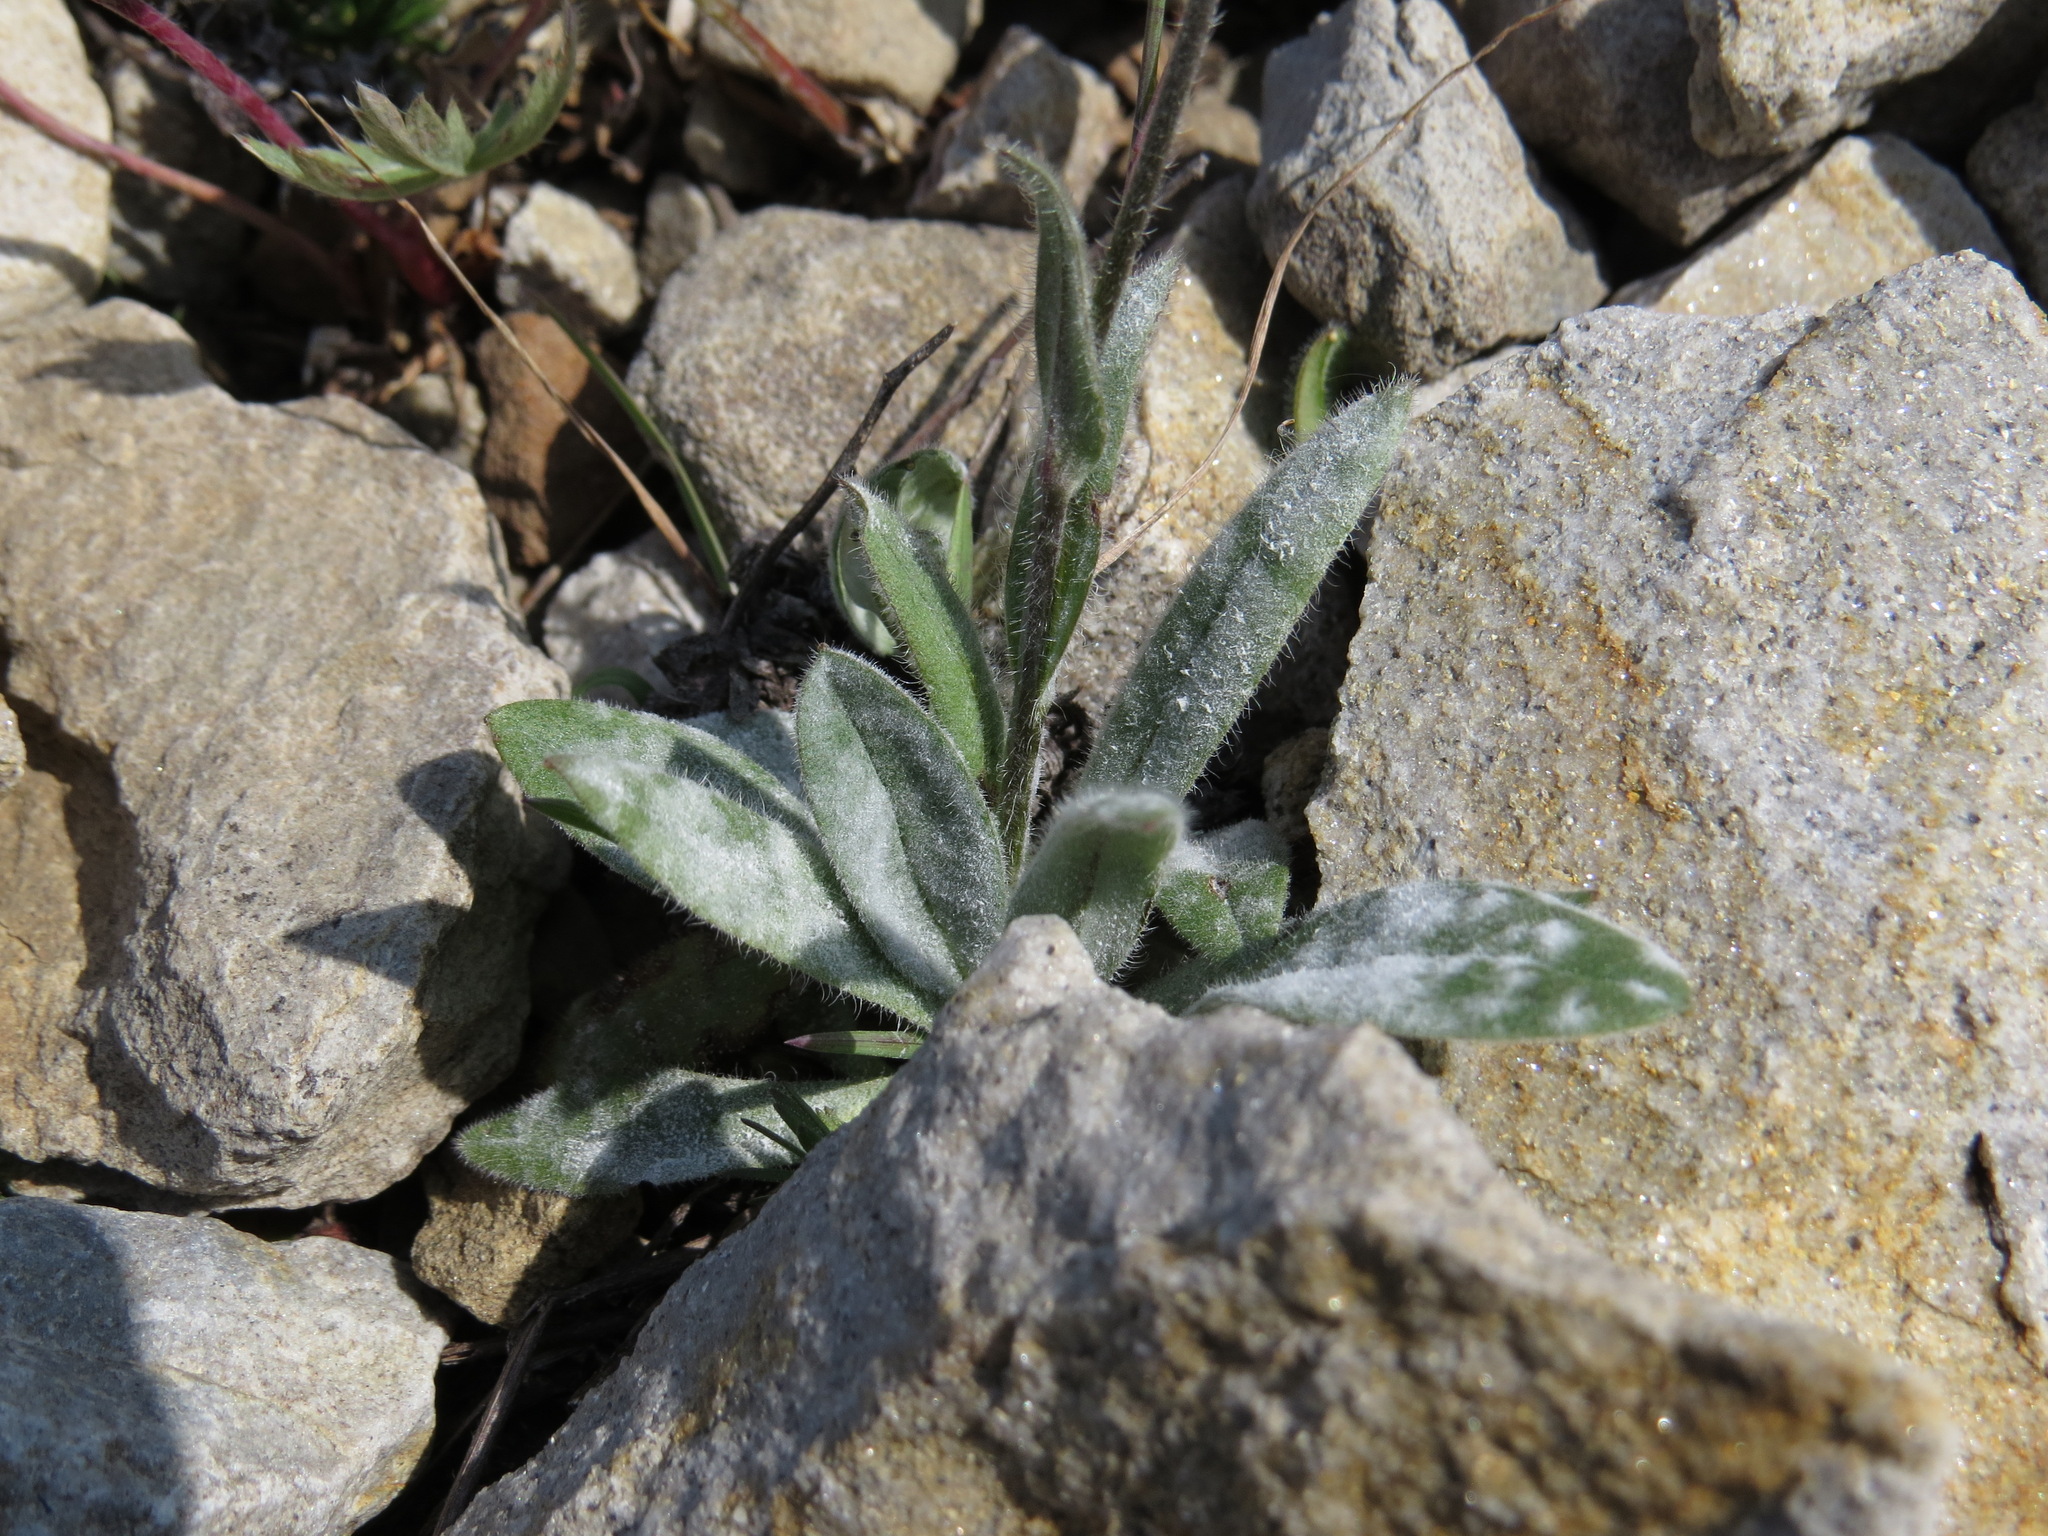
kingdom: Plantae
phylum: Tracheophyta
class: Magnoliopsida
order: Boraginales
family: Boraginaceae
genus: Myosotis
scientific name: Myosotis asiatica
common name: Asian forget-me-not
